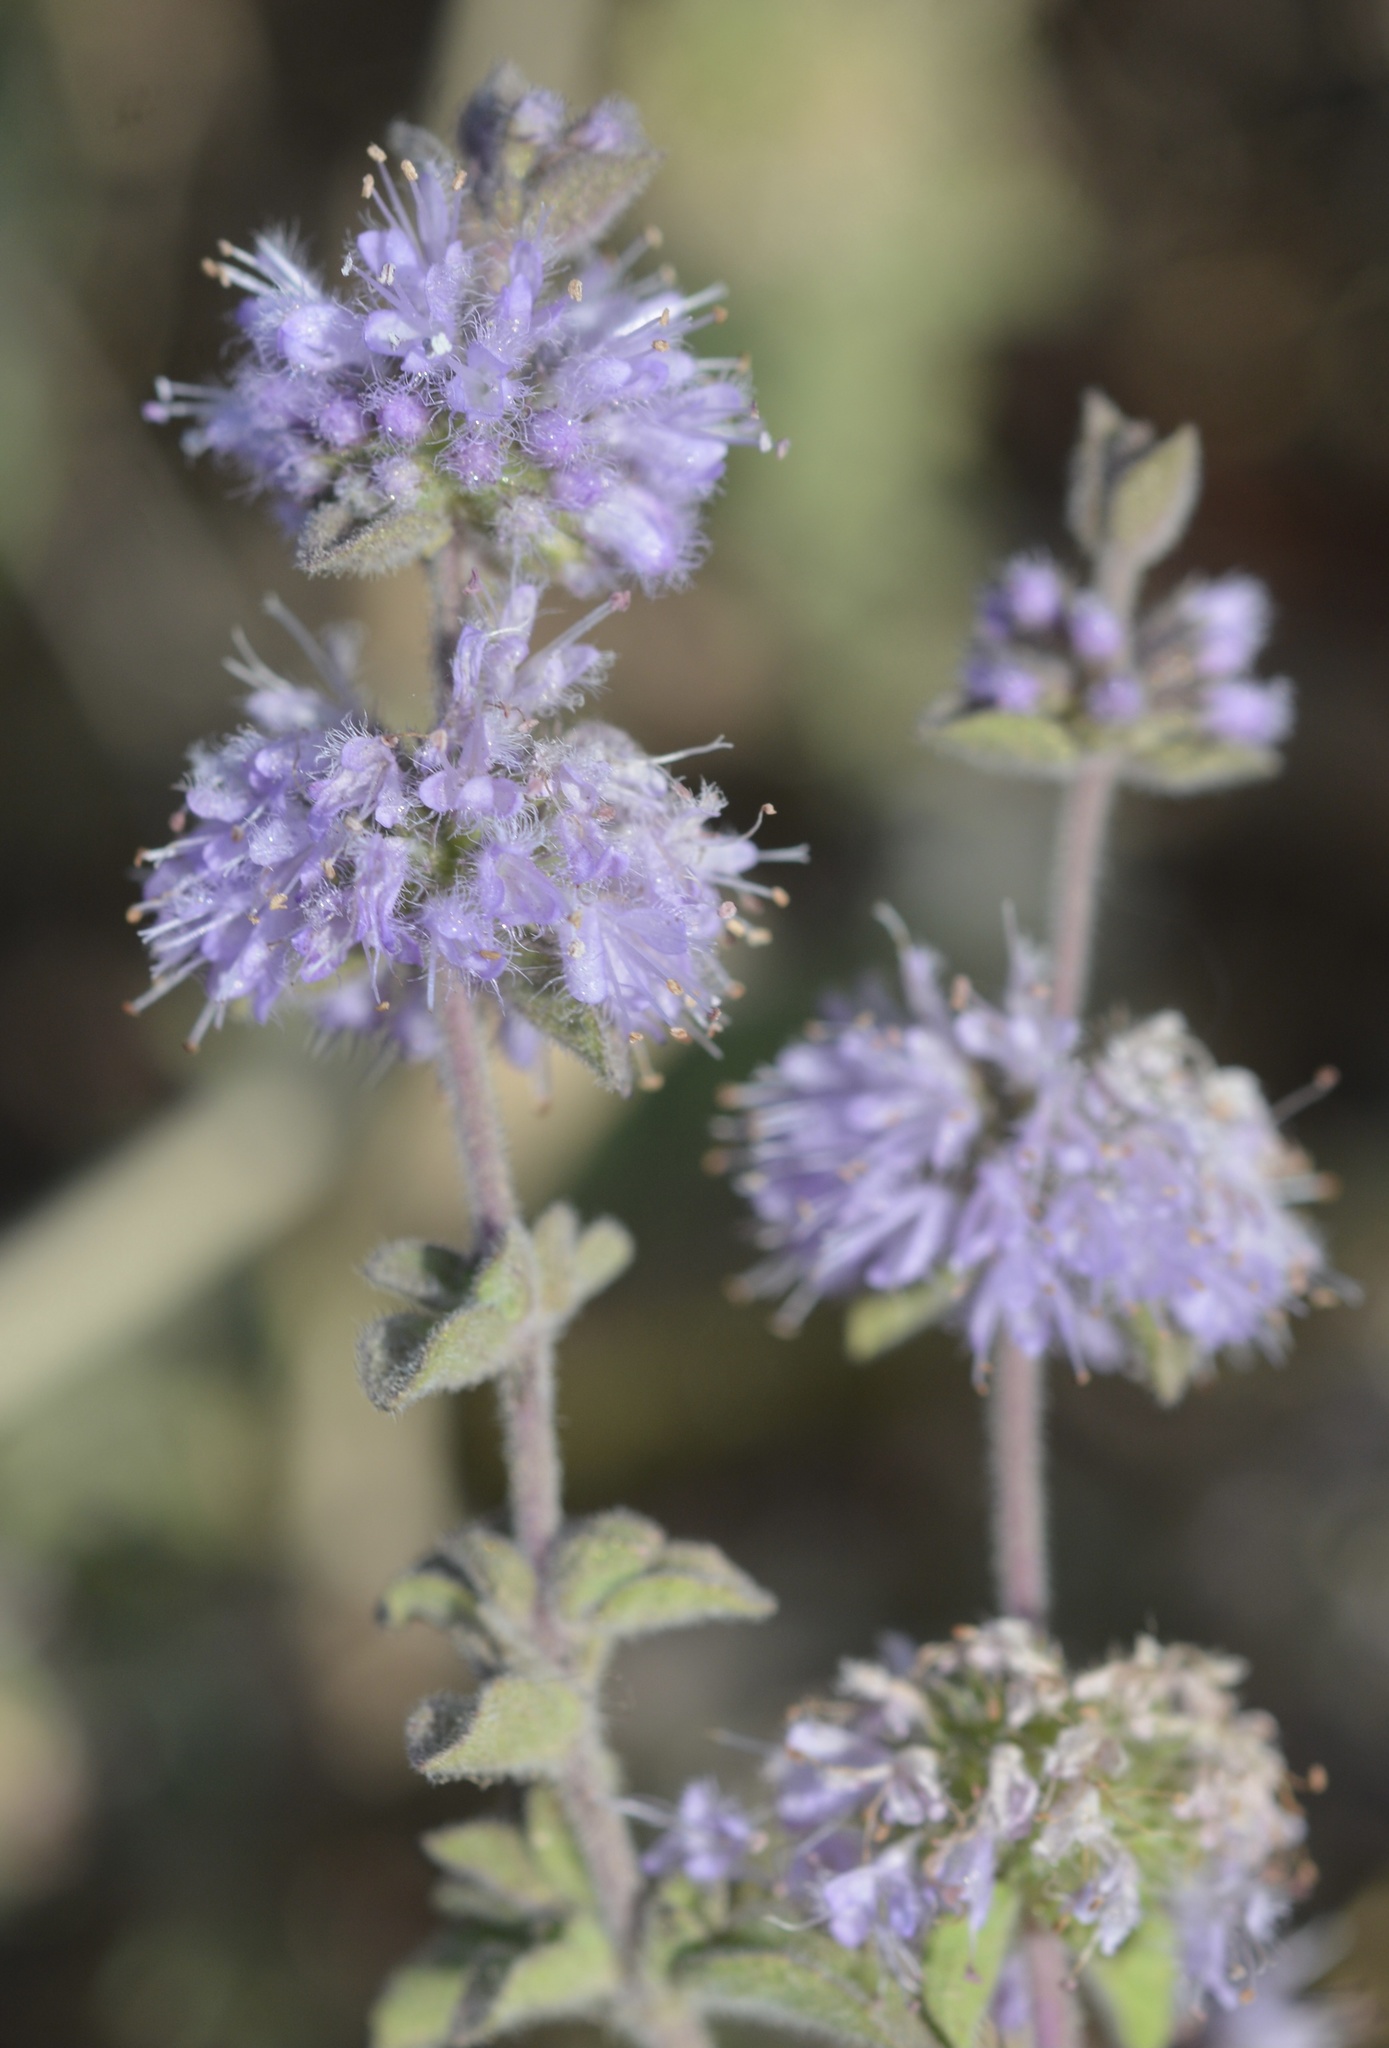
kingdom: Plantae
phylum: Tracheophyta
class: Magnoliopsida
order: Lamiales
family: Lamiaceae
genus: Mentha
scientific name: Mentha pulegium
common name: Pennyroyal
